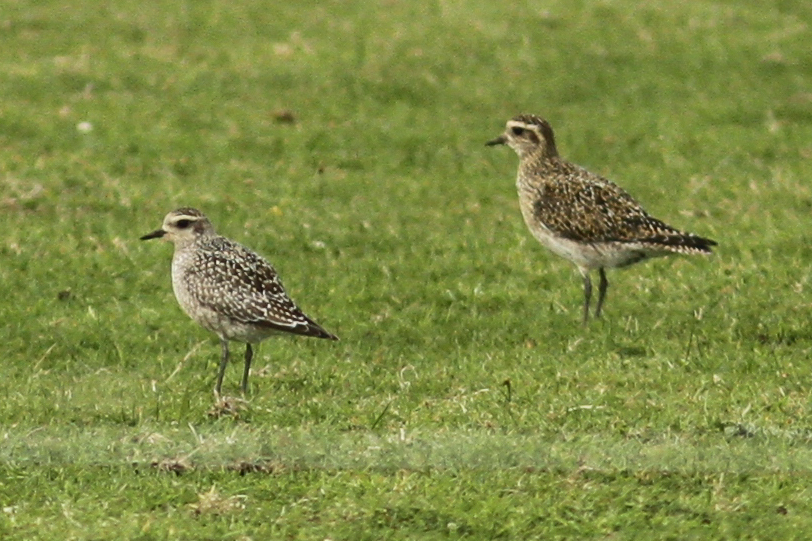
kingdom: Animalia
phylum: Chordata
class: Aves
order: Charadriiformes
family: Charadriidae
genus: Pluvialis
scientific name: Pluvialis dominica
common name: American golden plover
